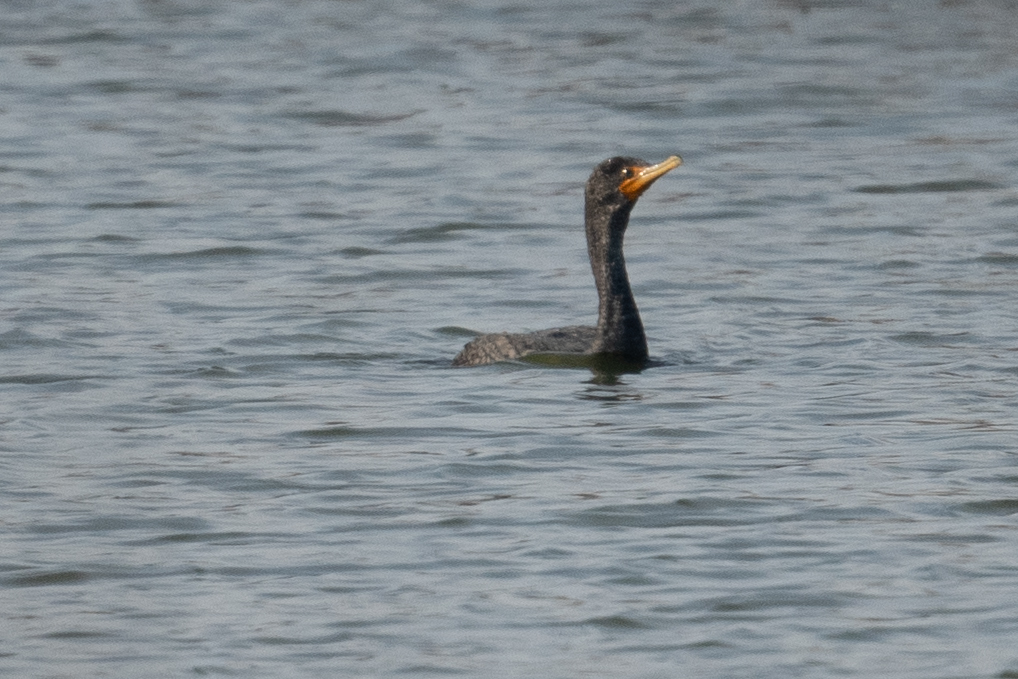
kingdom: Animalia
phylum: Chordata
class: Aves
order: Suliformes
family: Phalacrocoracidae
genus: Phalacrocorax
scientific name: Phalacrocorax auritus
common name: Double-crested cormorant
